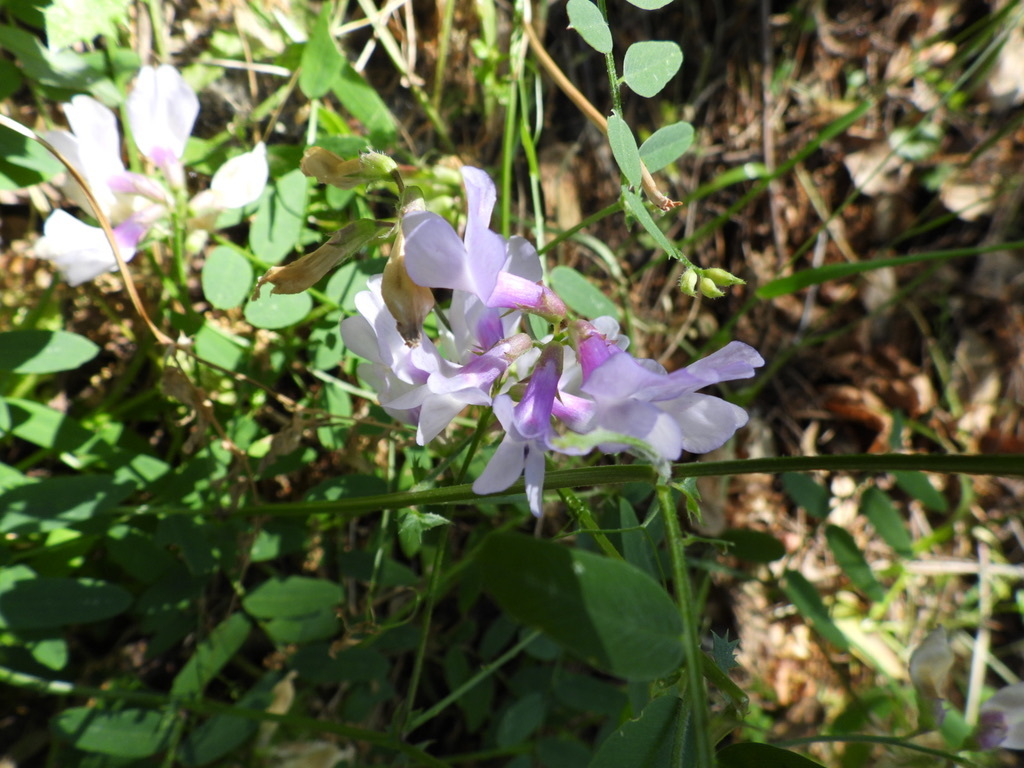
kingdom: Plantae
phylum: Tracheophyta
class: Magnoliopsida
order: Fabales
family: Fabaceae
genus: Vicia
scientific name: Vicia americana
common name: American vetch
